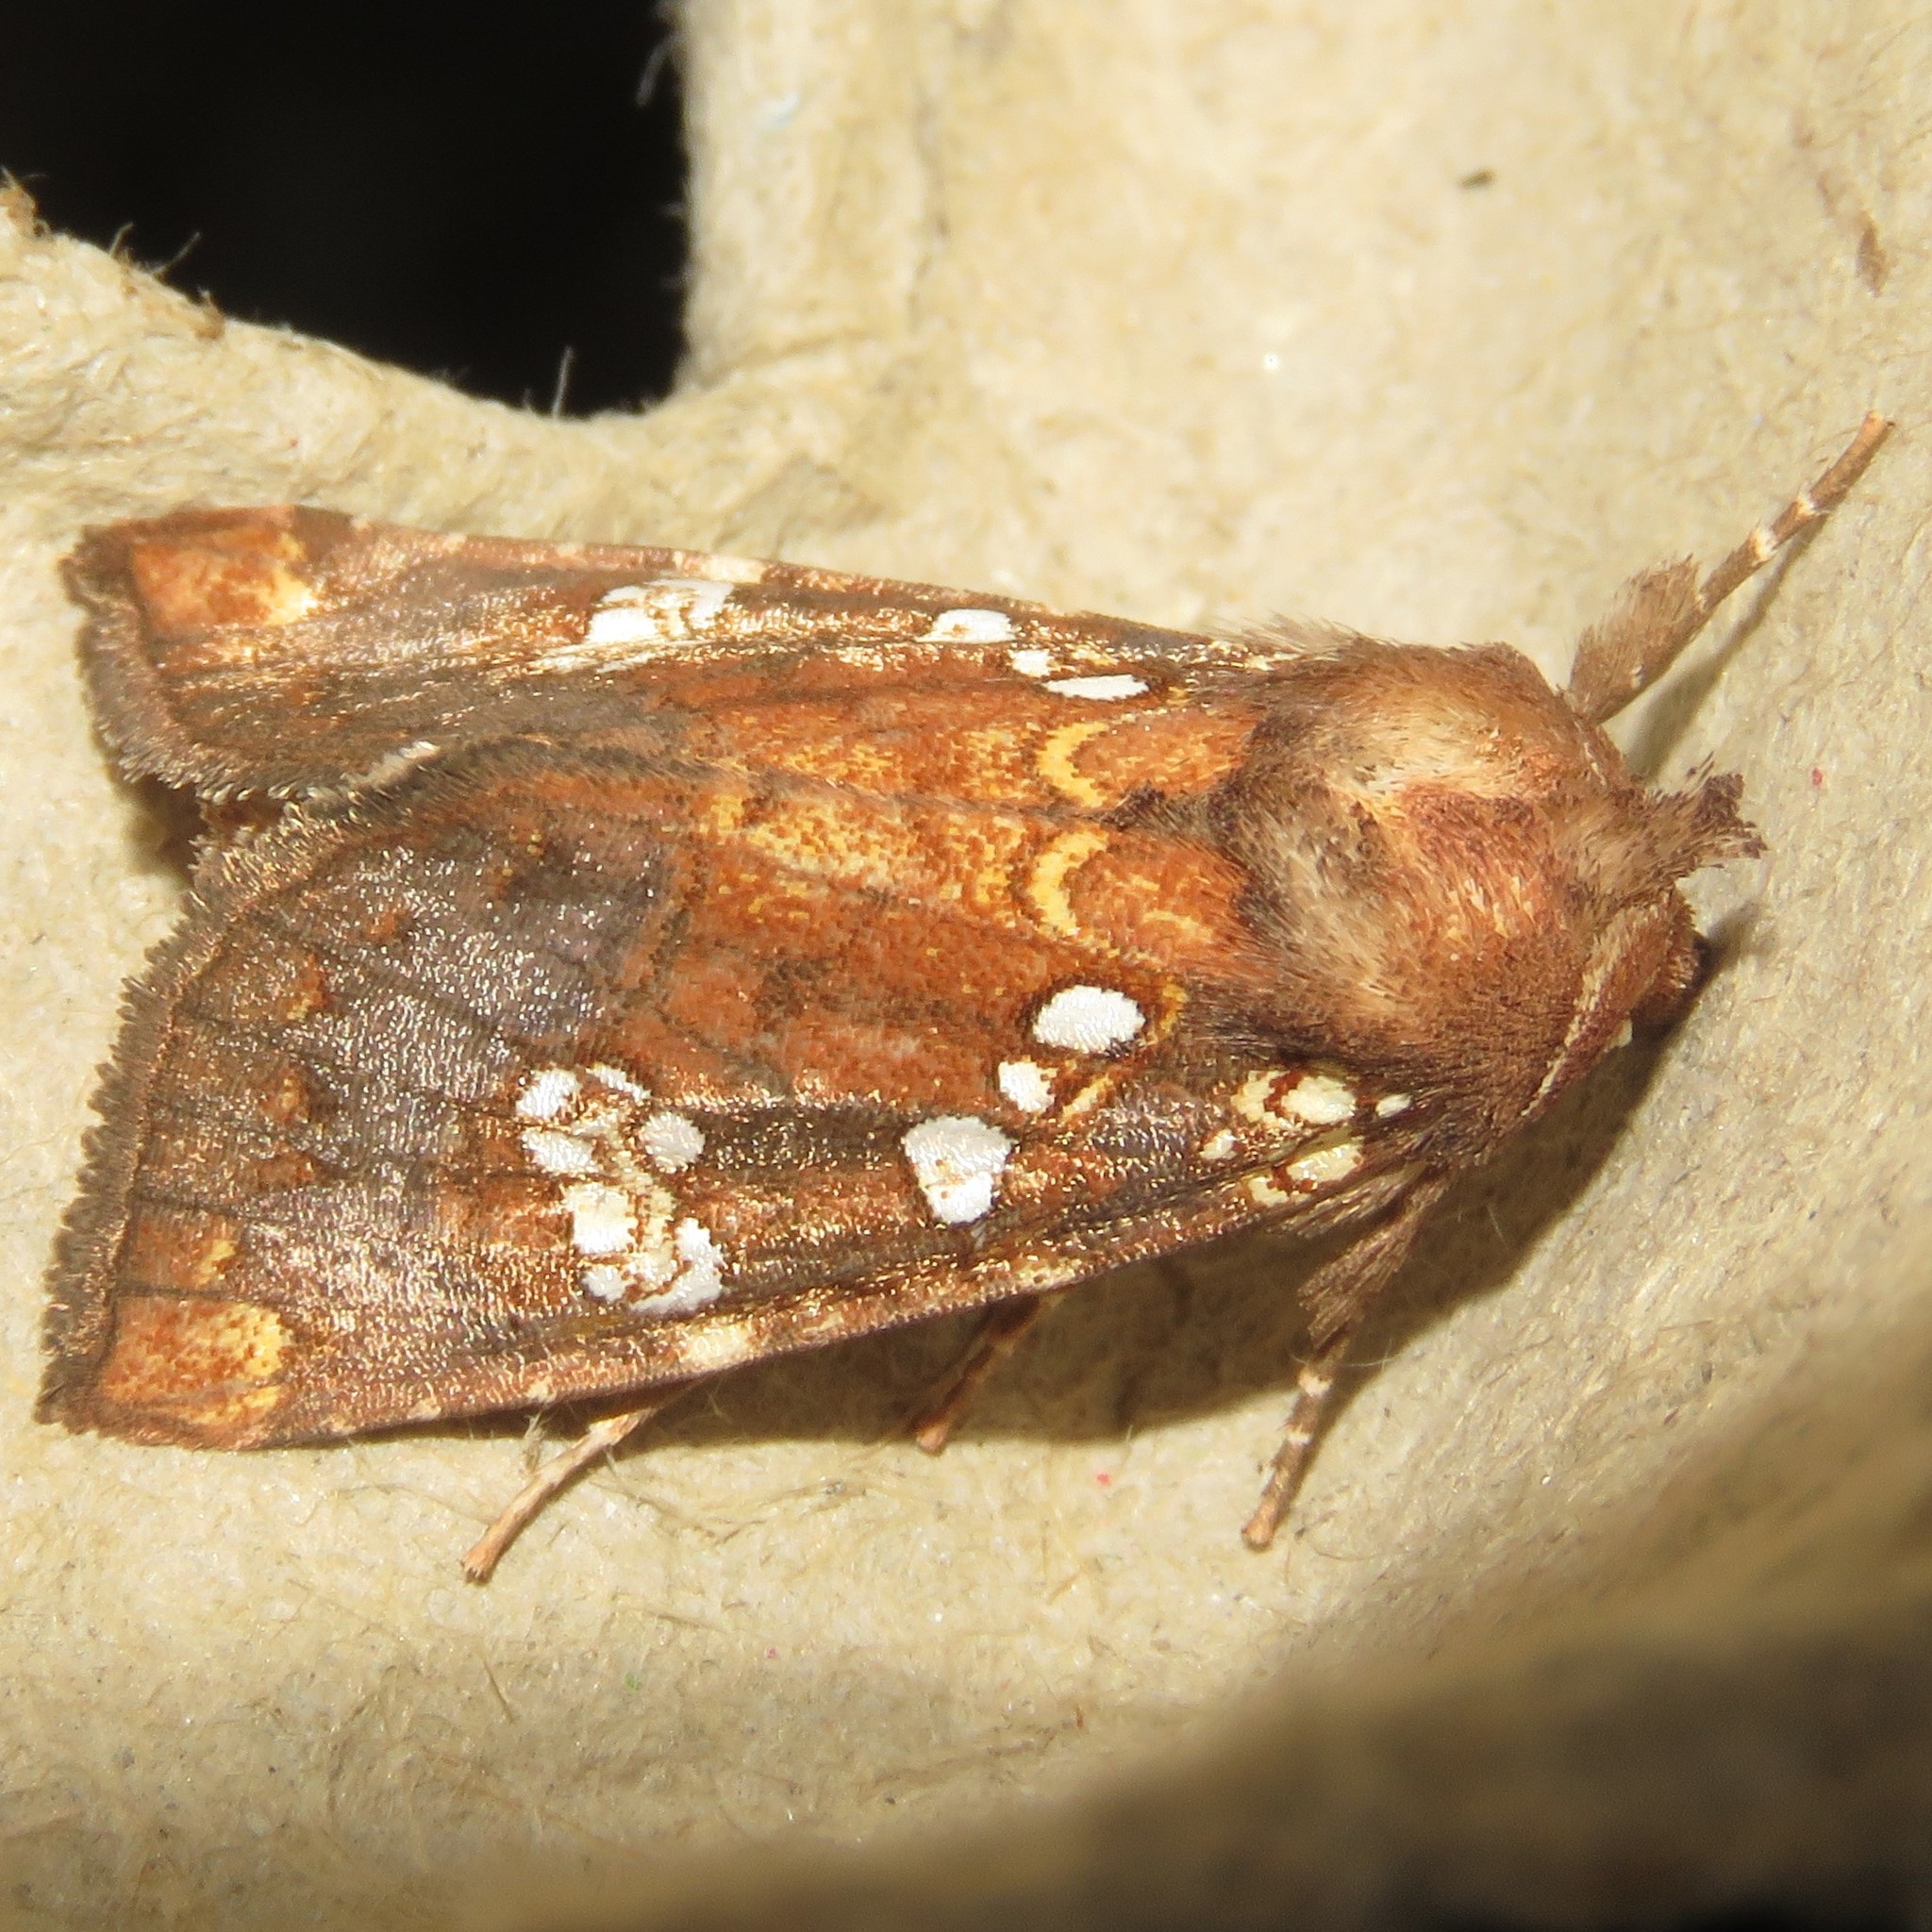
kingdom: Animalia
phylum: Arthropoda
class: Insecta
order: Lepidoptera
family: Noctuidae
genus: Papaipema
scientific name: Papaipema insulidens
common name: Ragwort stem borer moth
